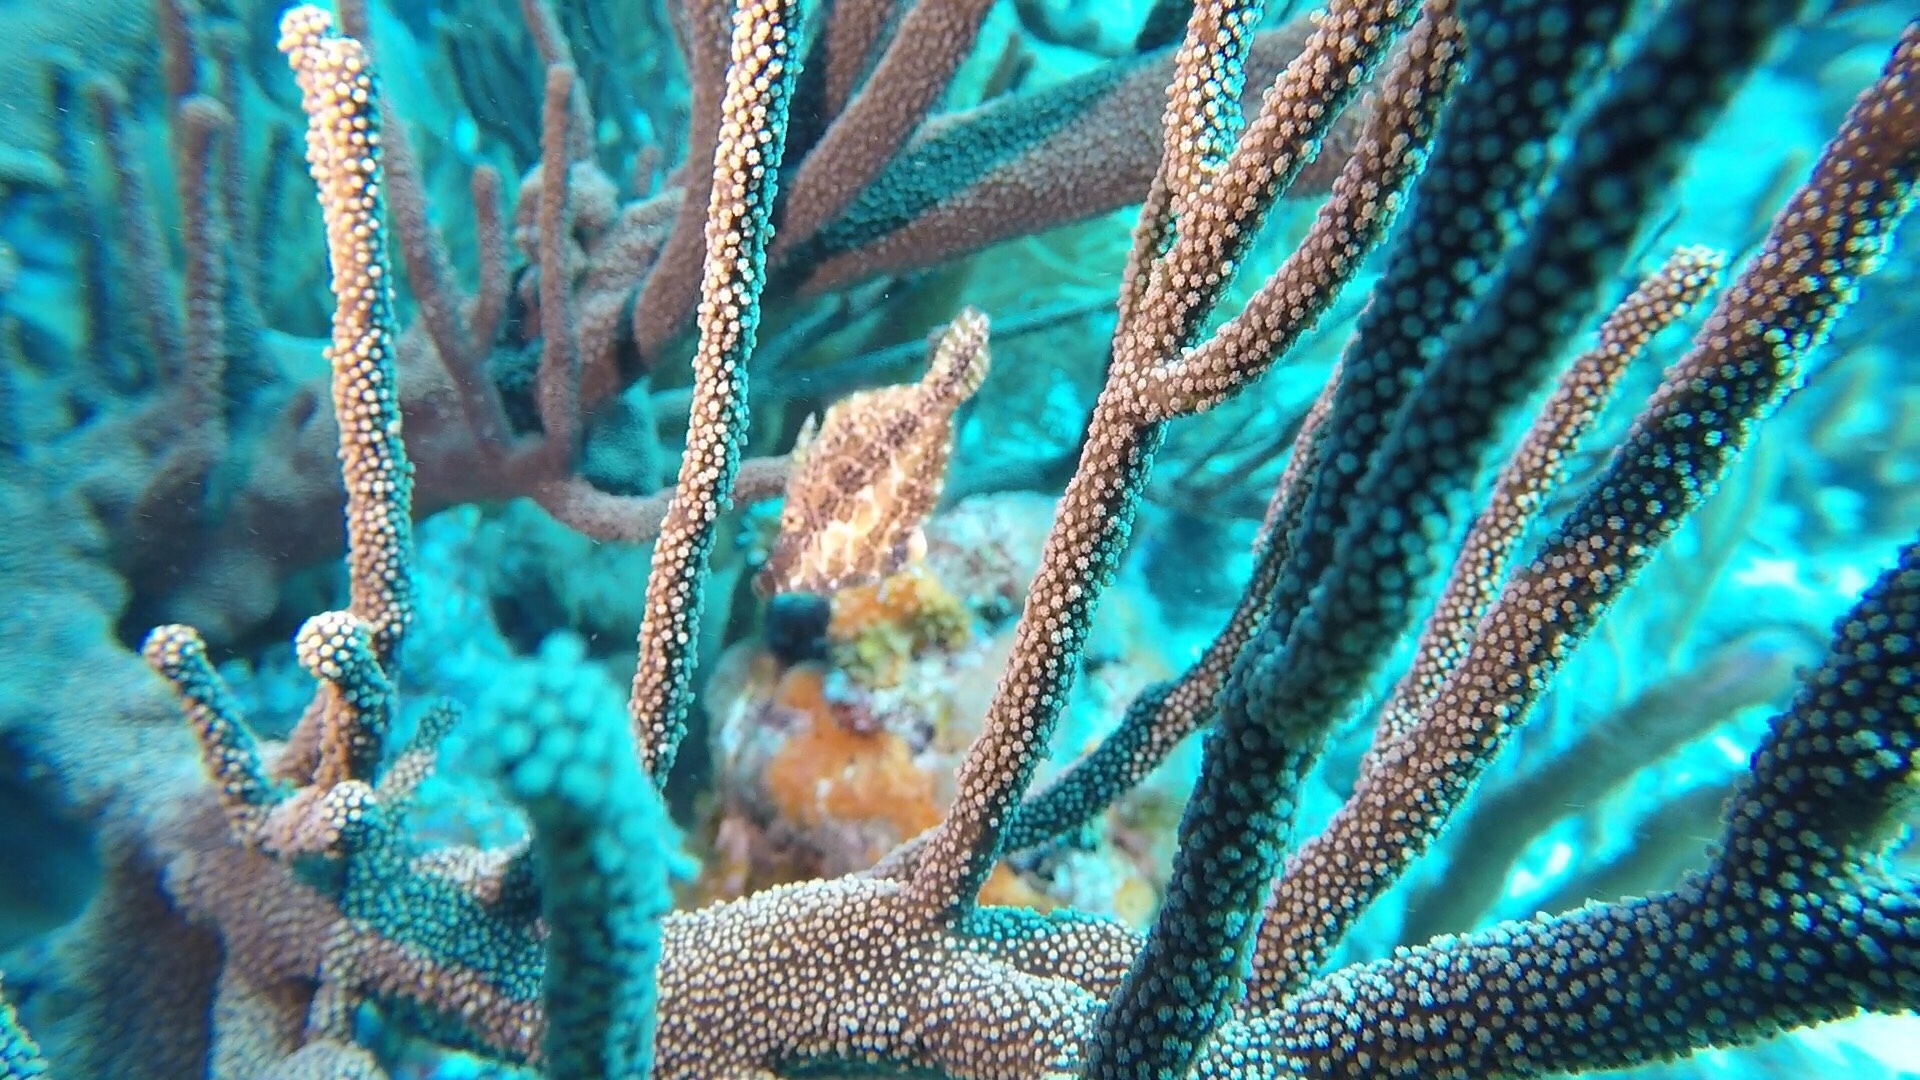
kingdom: Animalia
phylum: Chordata
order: Tetraodontiformes
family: Monacanthidae
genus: Monacanthus
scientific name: Monacanthus tuckeri
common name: Slender filefish
